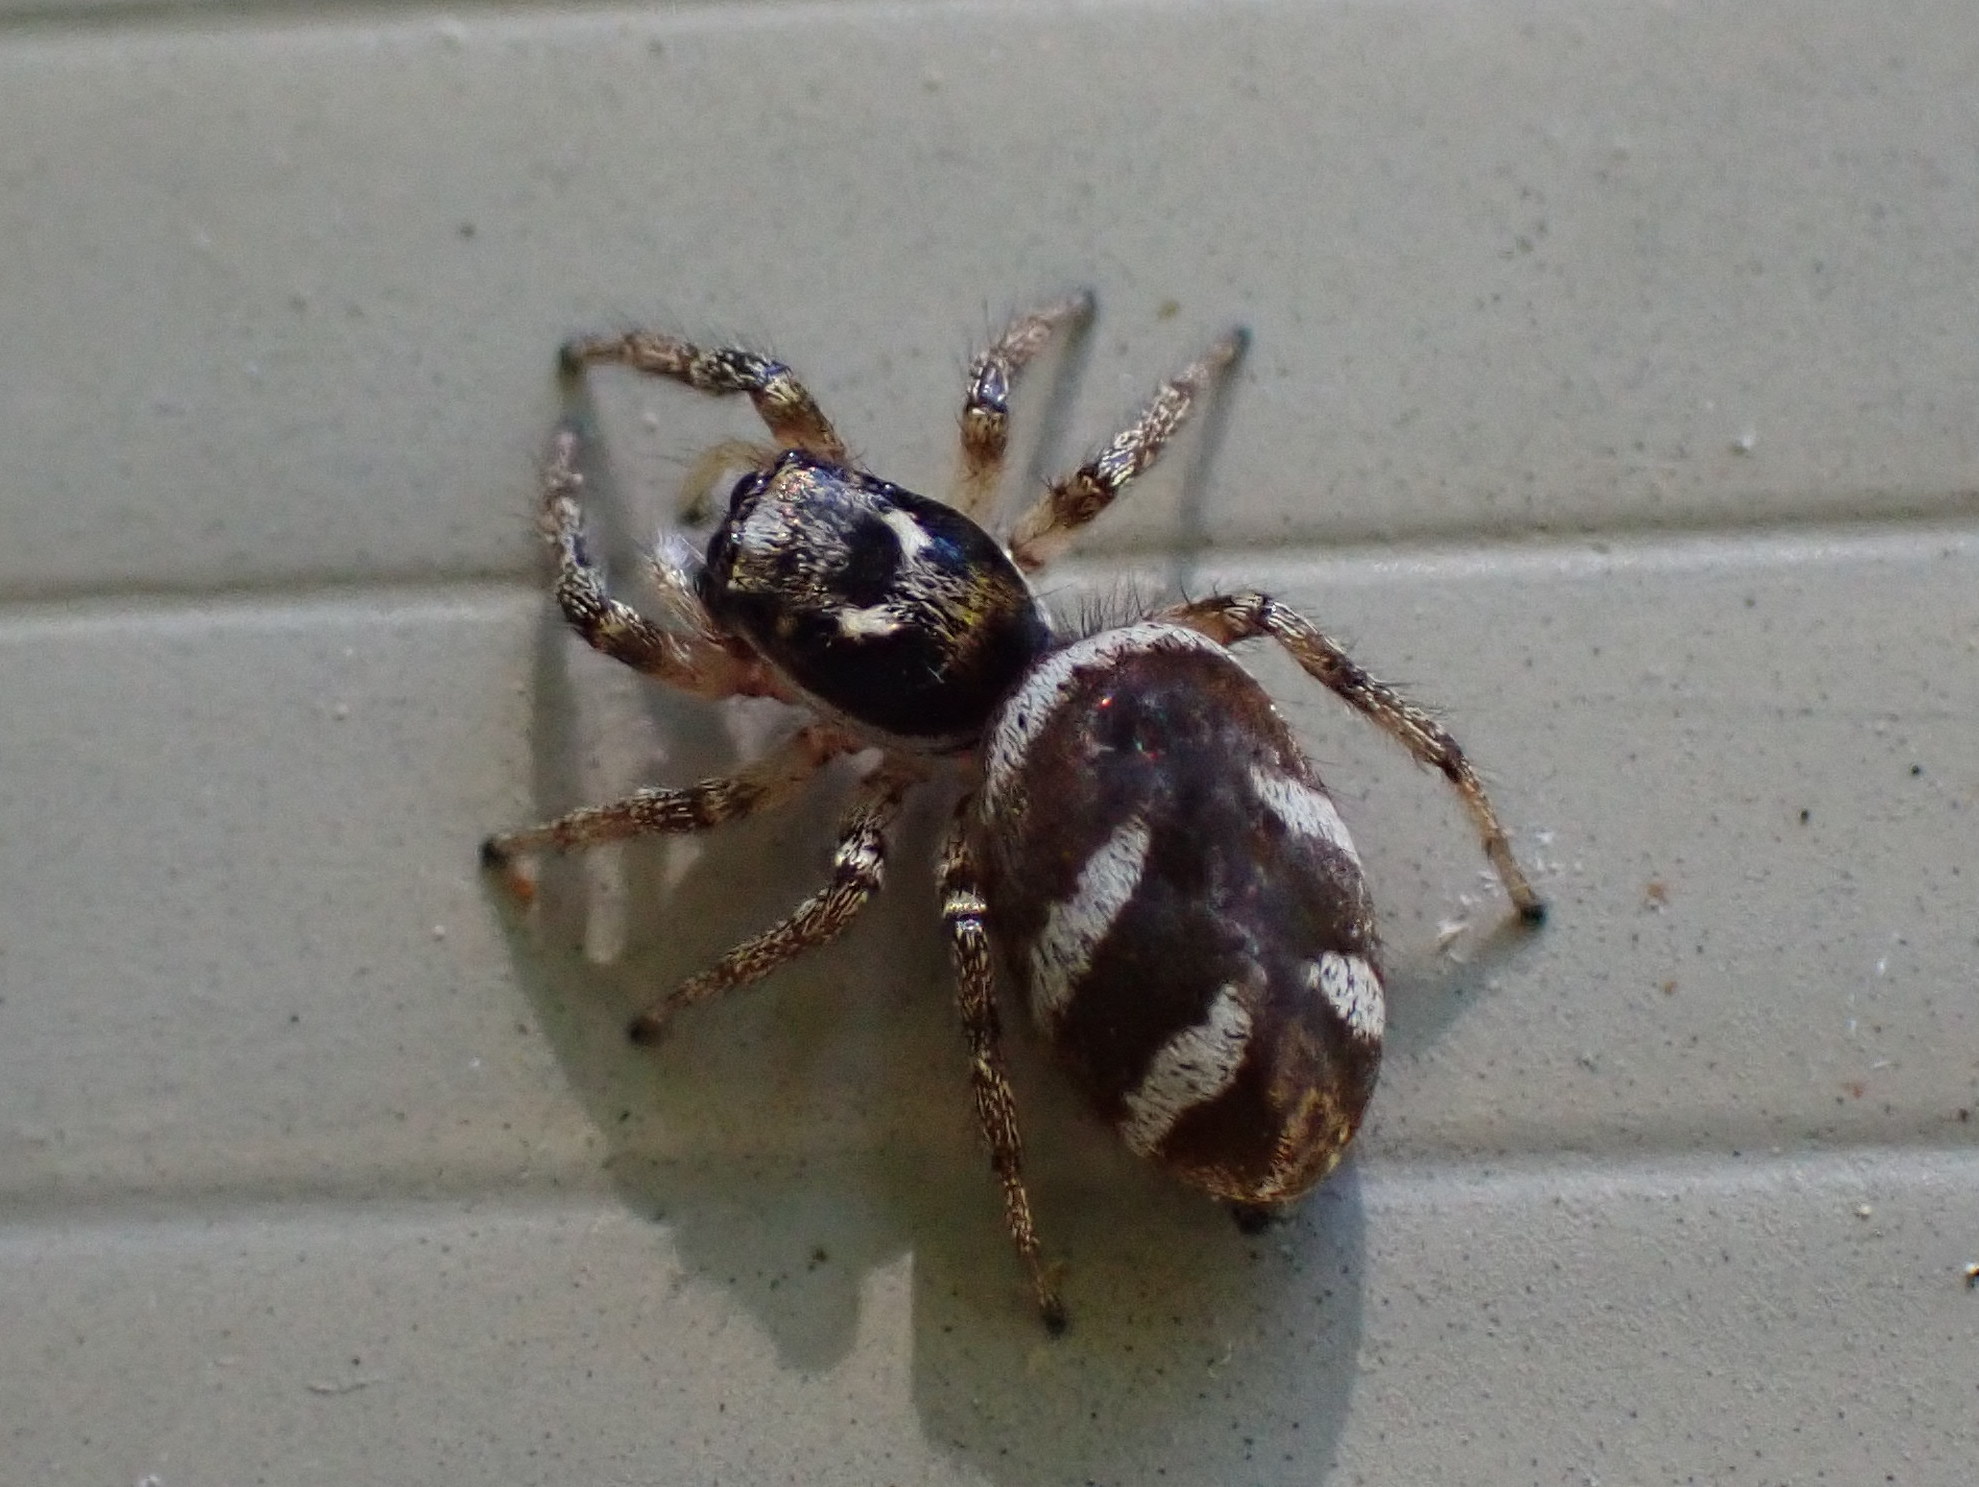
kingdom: Animalia
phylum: Arthropoda
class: Arachnida
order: Araneae
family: Salticidae
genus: Salticus
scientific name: Salticus scenicus
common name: Zebra jumper
